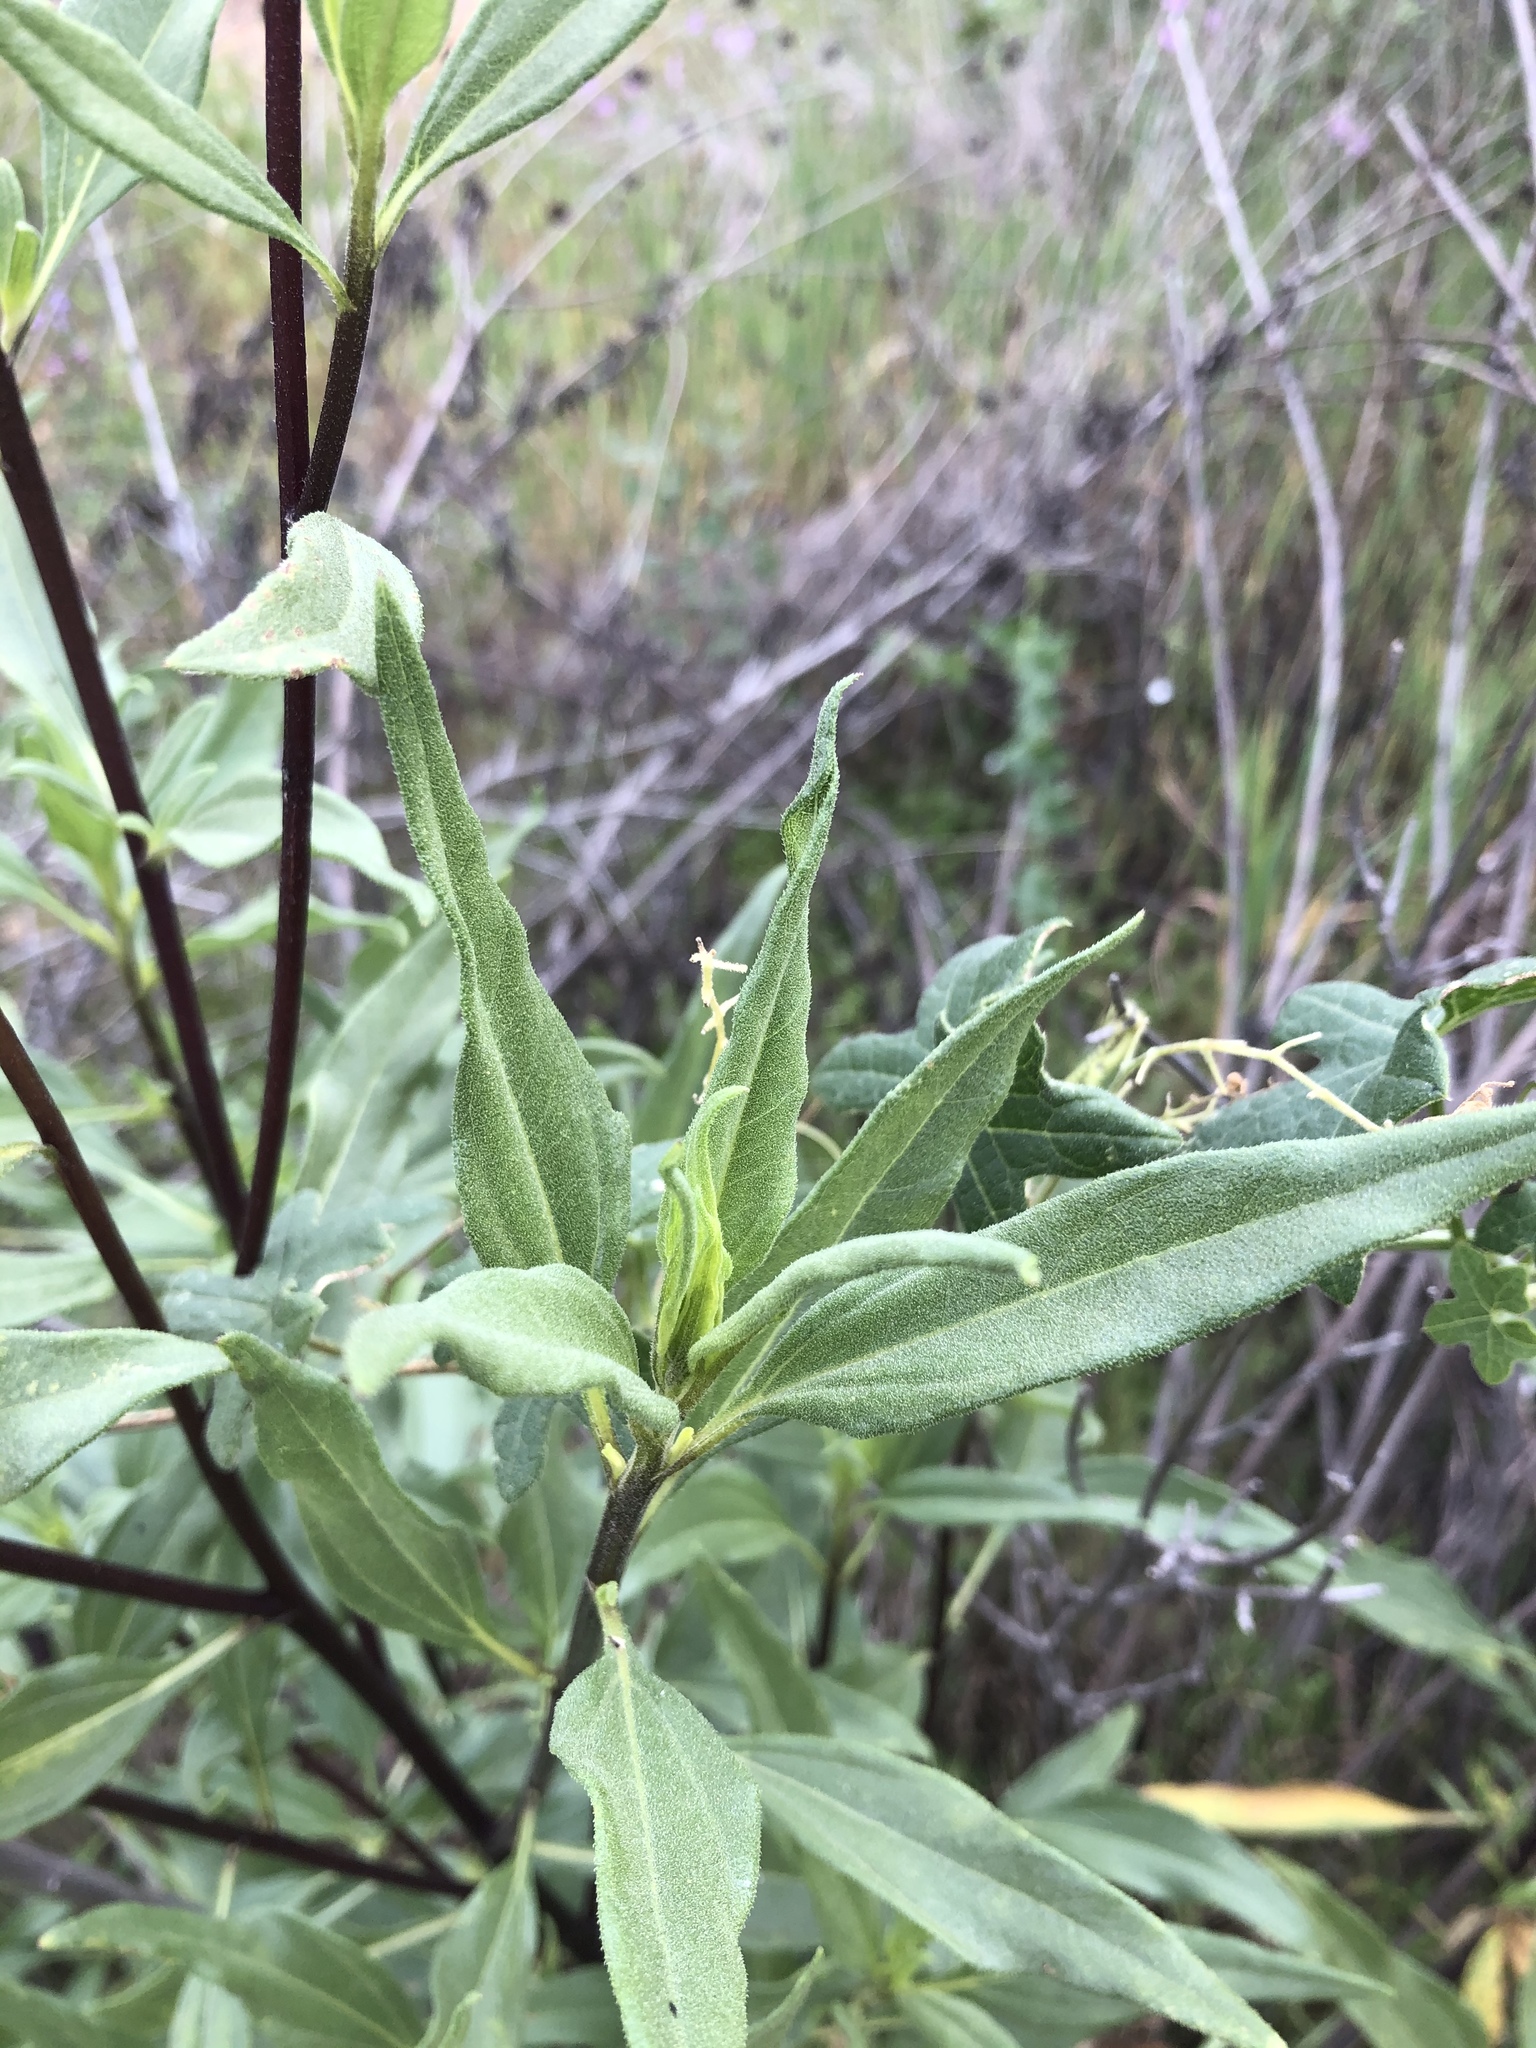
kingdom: Plantae
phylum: Tracheophyta
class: Magnoliopsida
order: Asterales
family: Asteraceae
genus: Helianthus
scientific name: Helianthus gracilentus
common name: Slender sunflower
